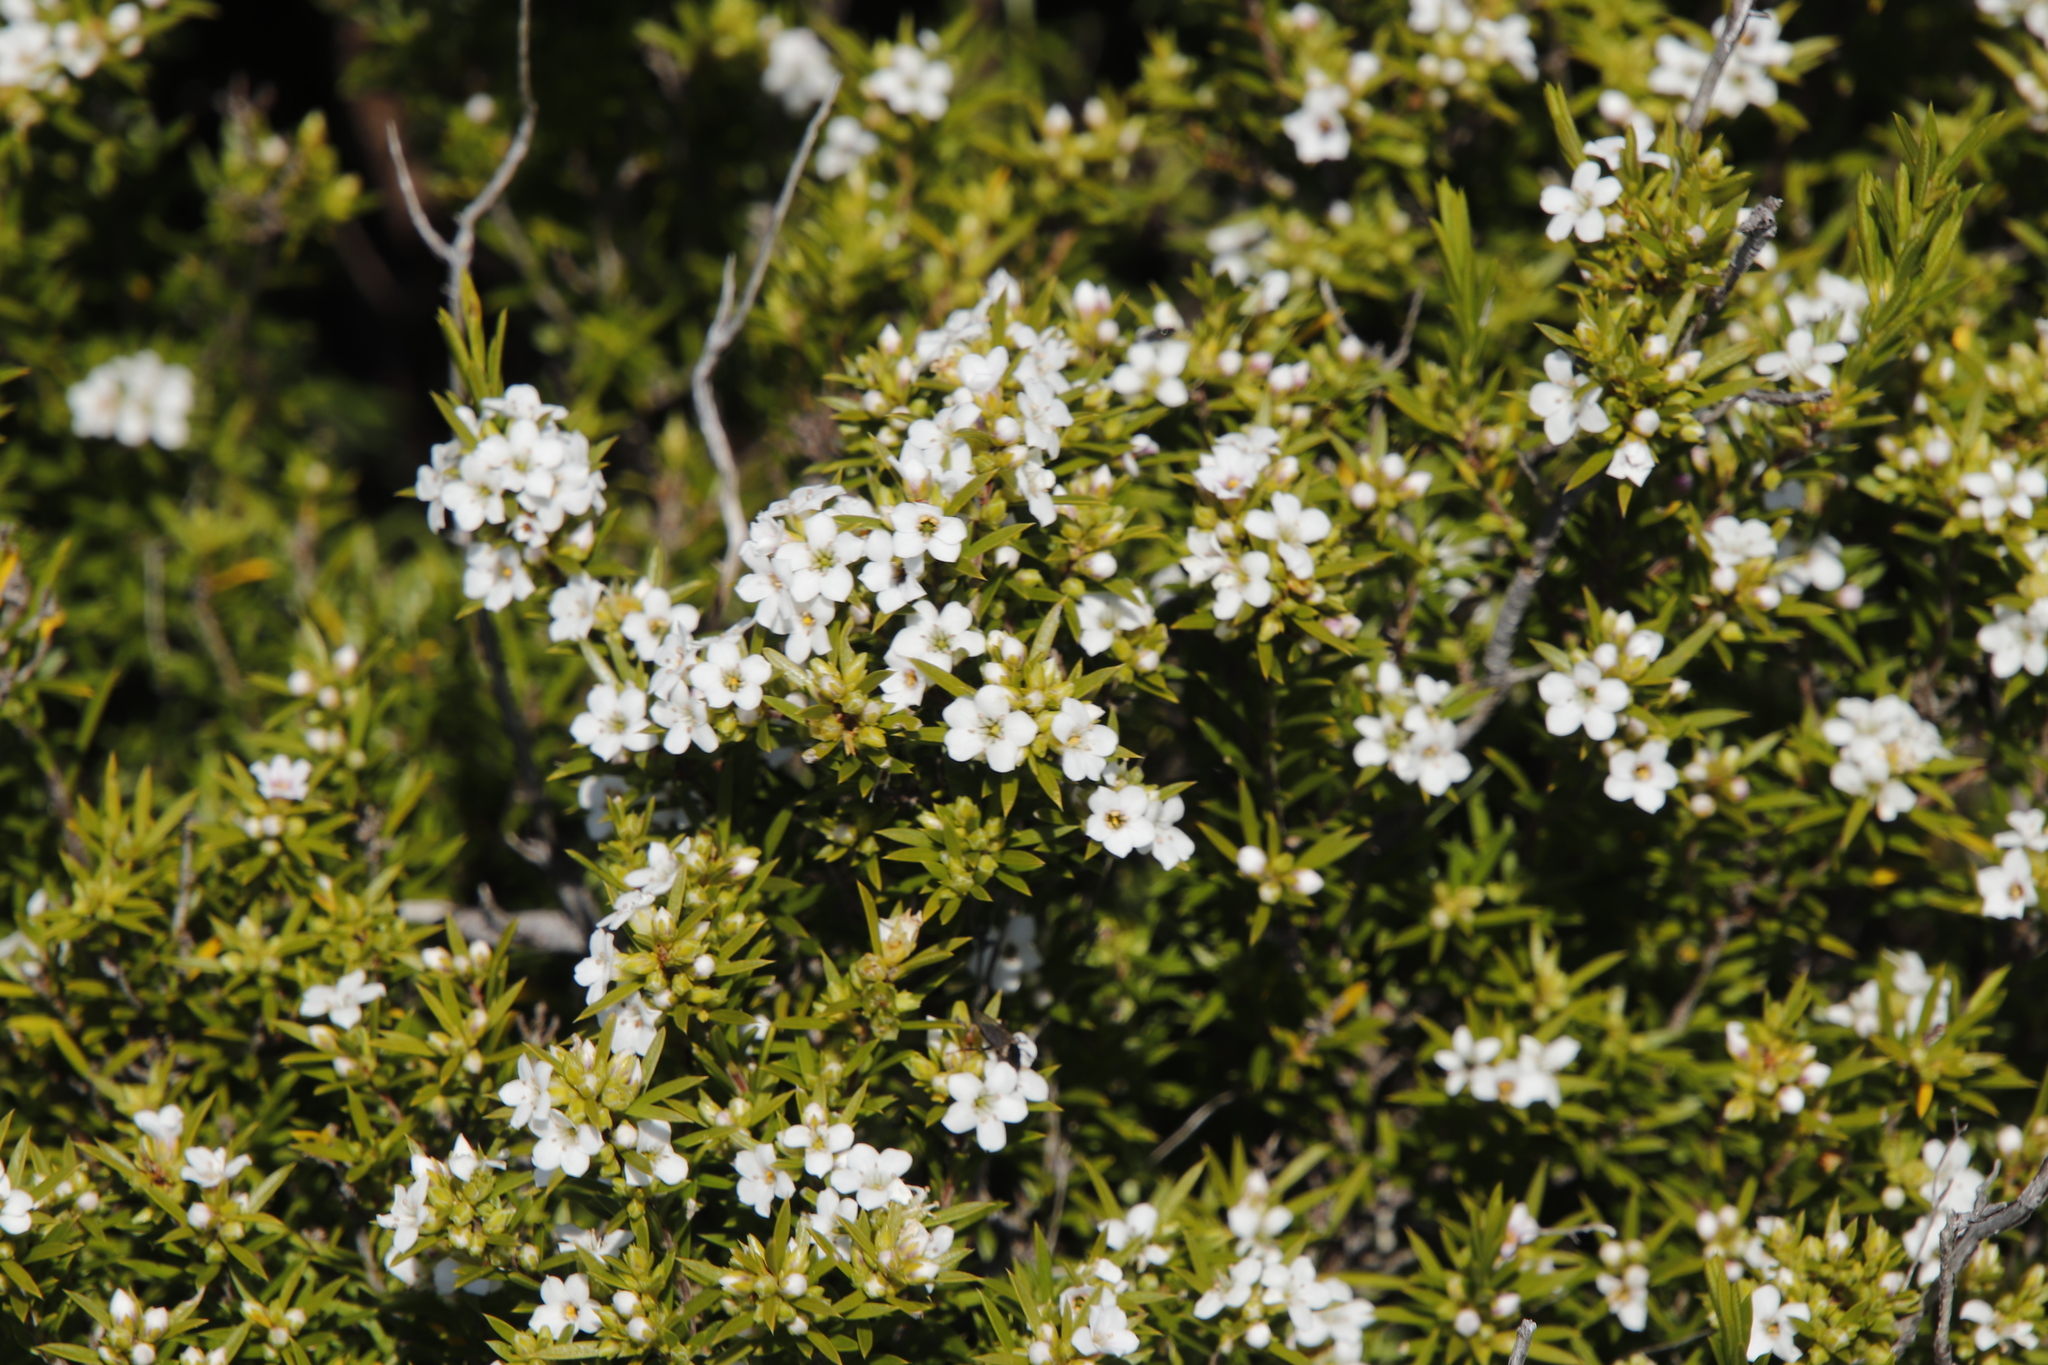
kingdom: Plantae
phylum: Tracheophyta
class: Magnoliopsida
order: Sapindales
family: Rutaceae
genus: Coleonema
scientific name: Coleonema album
